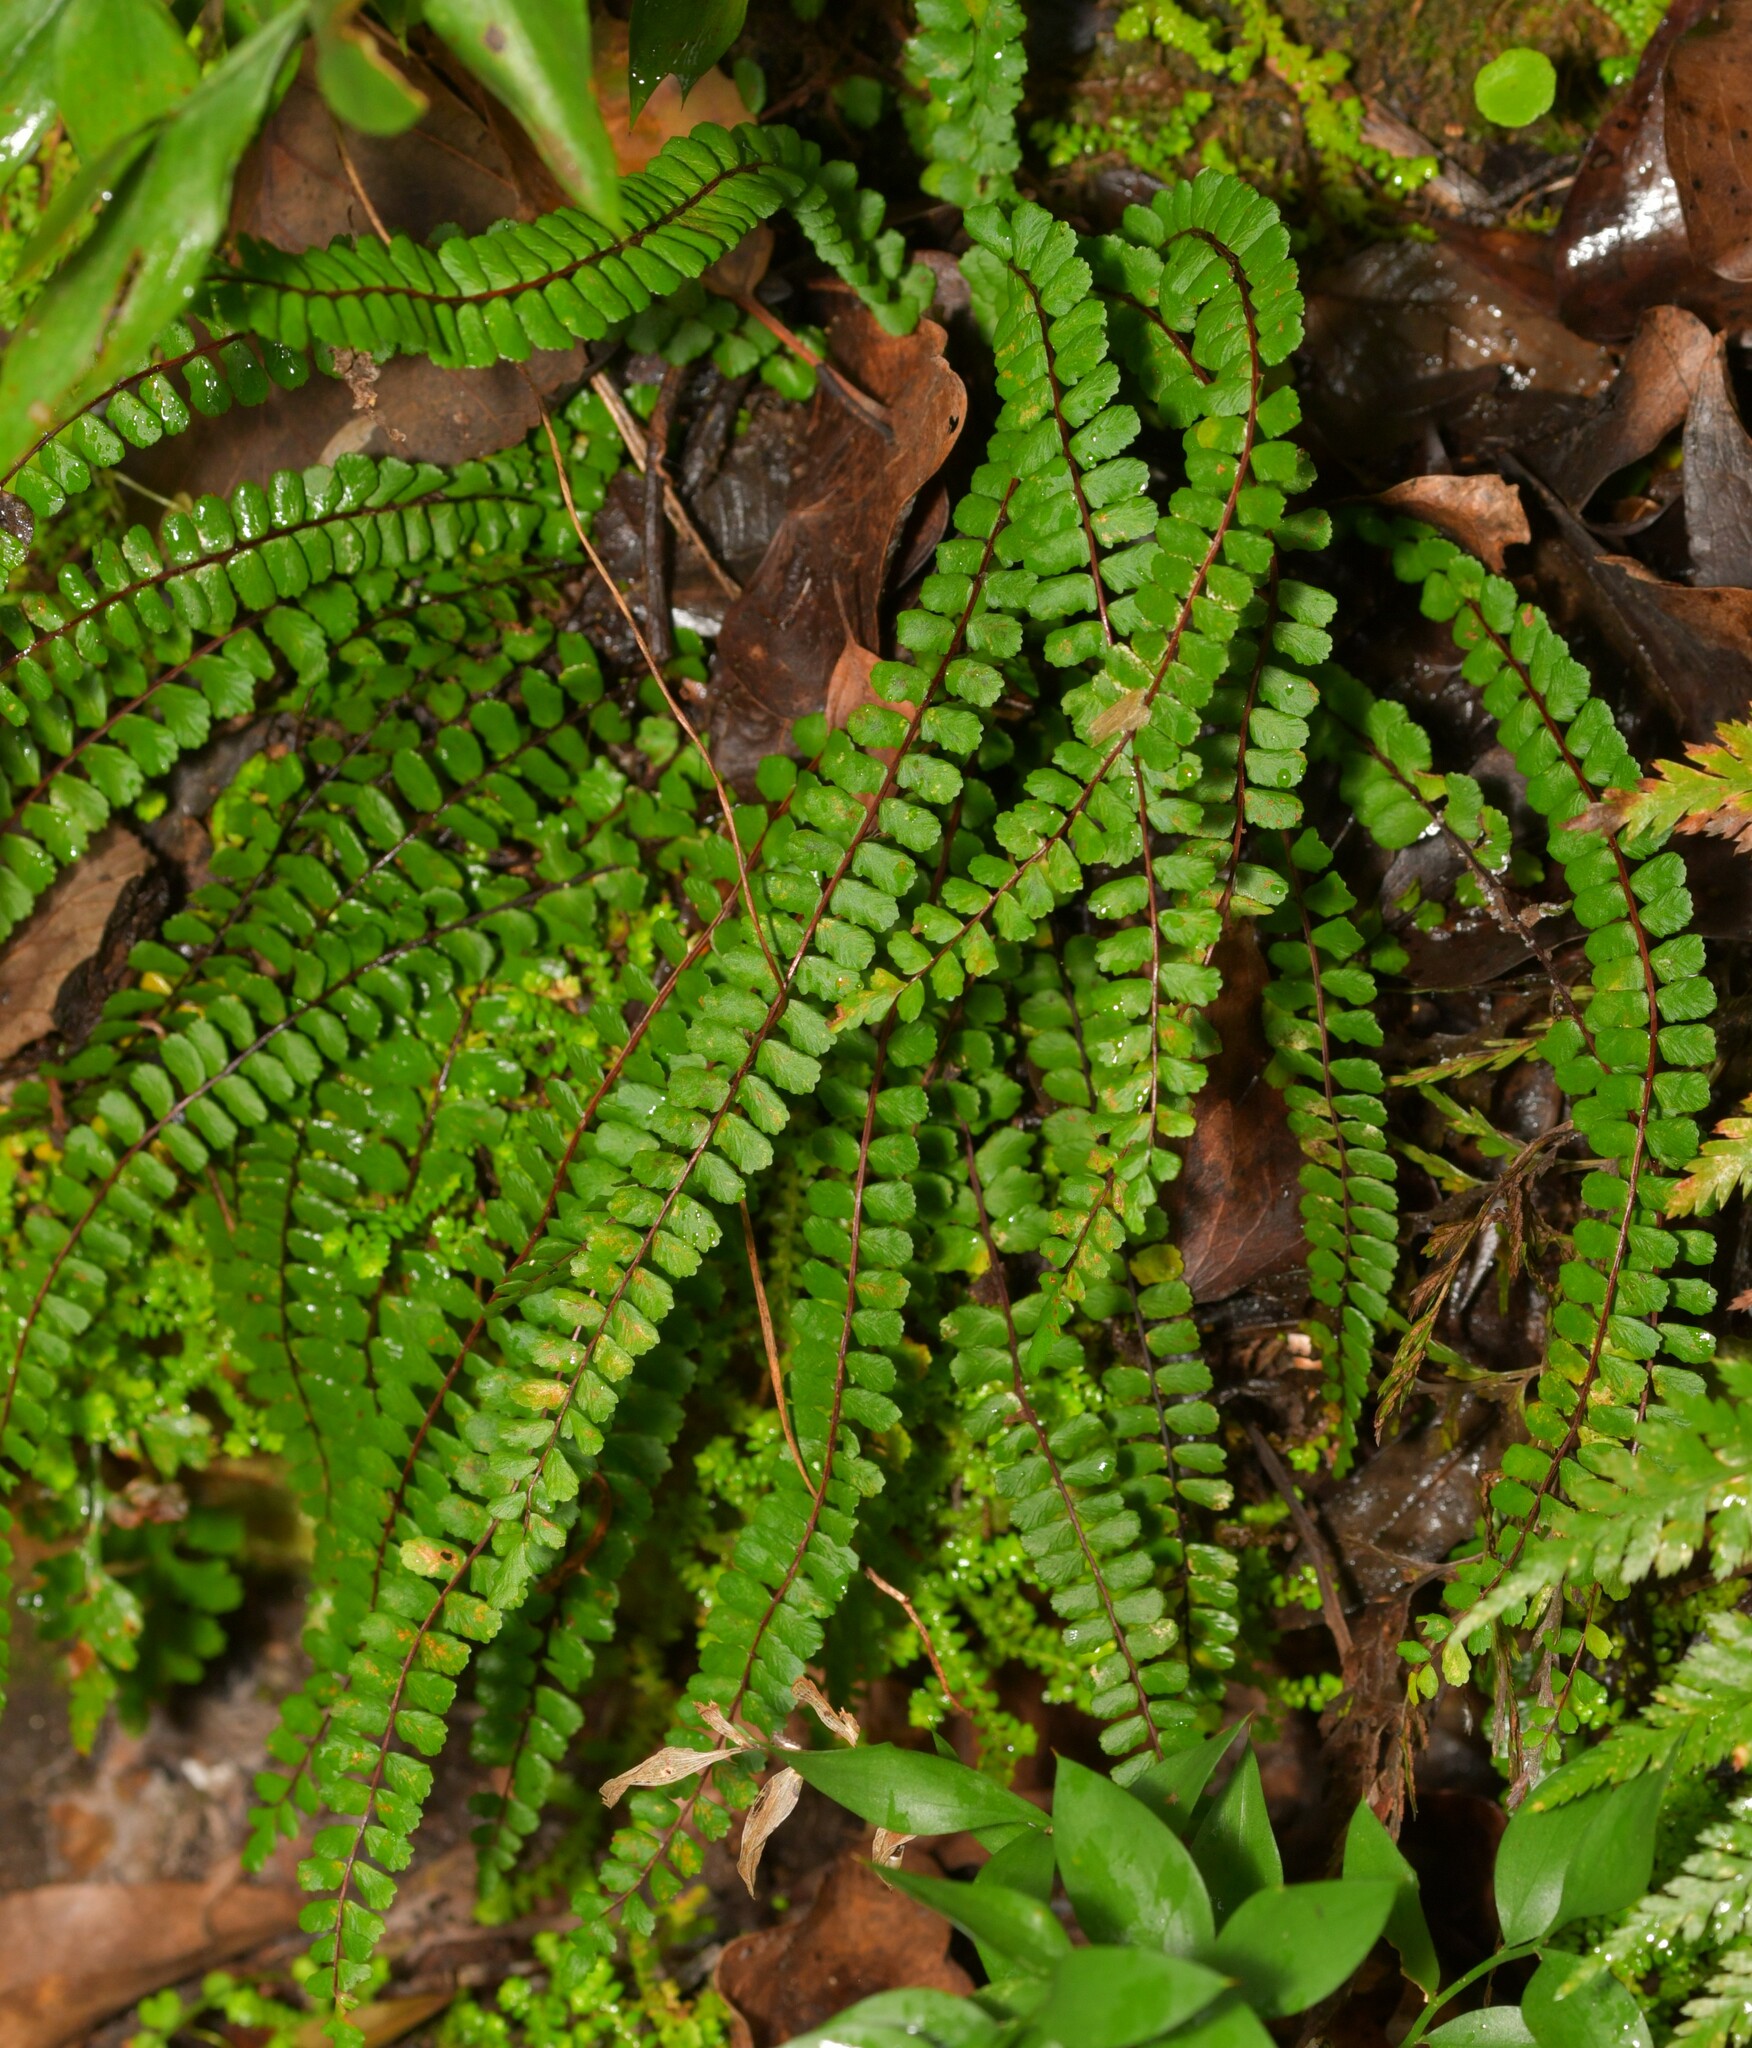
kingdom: Plantae
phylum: Tracheophyta
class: Polypodiopsida
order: Polypodiales
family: Aspleniaceae
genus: Asplenium
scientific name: Asplenium trichomanes
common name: Maidenhair spleenwort
